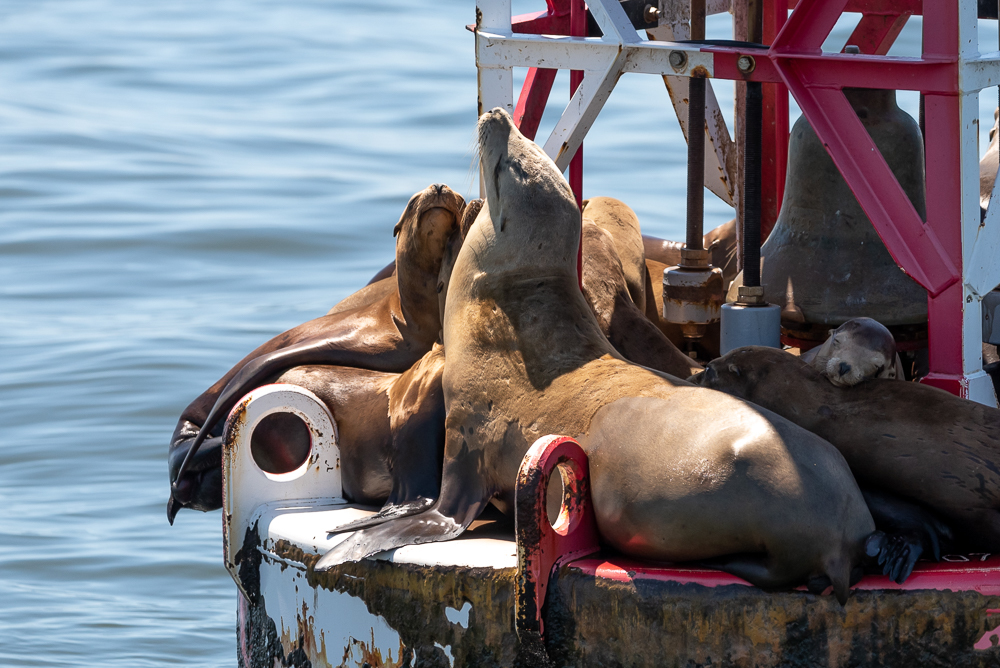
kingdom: Animalia
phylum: Chordata
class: Mammalia
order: Carnivora
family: Otariidae
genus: Zalophus
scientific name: Zalophus californianus
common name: California sea lion
